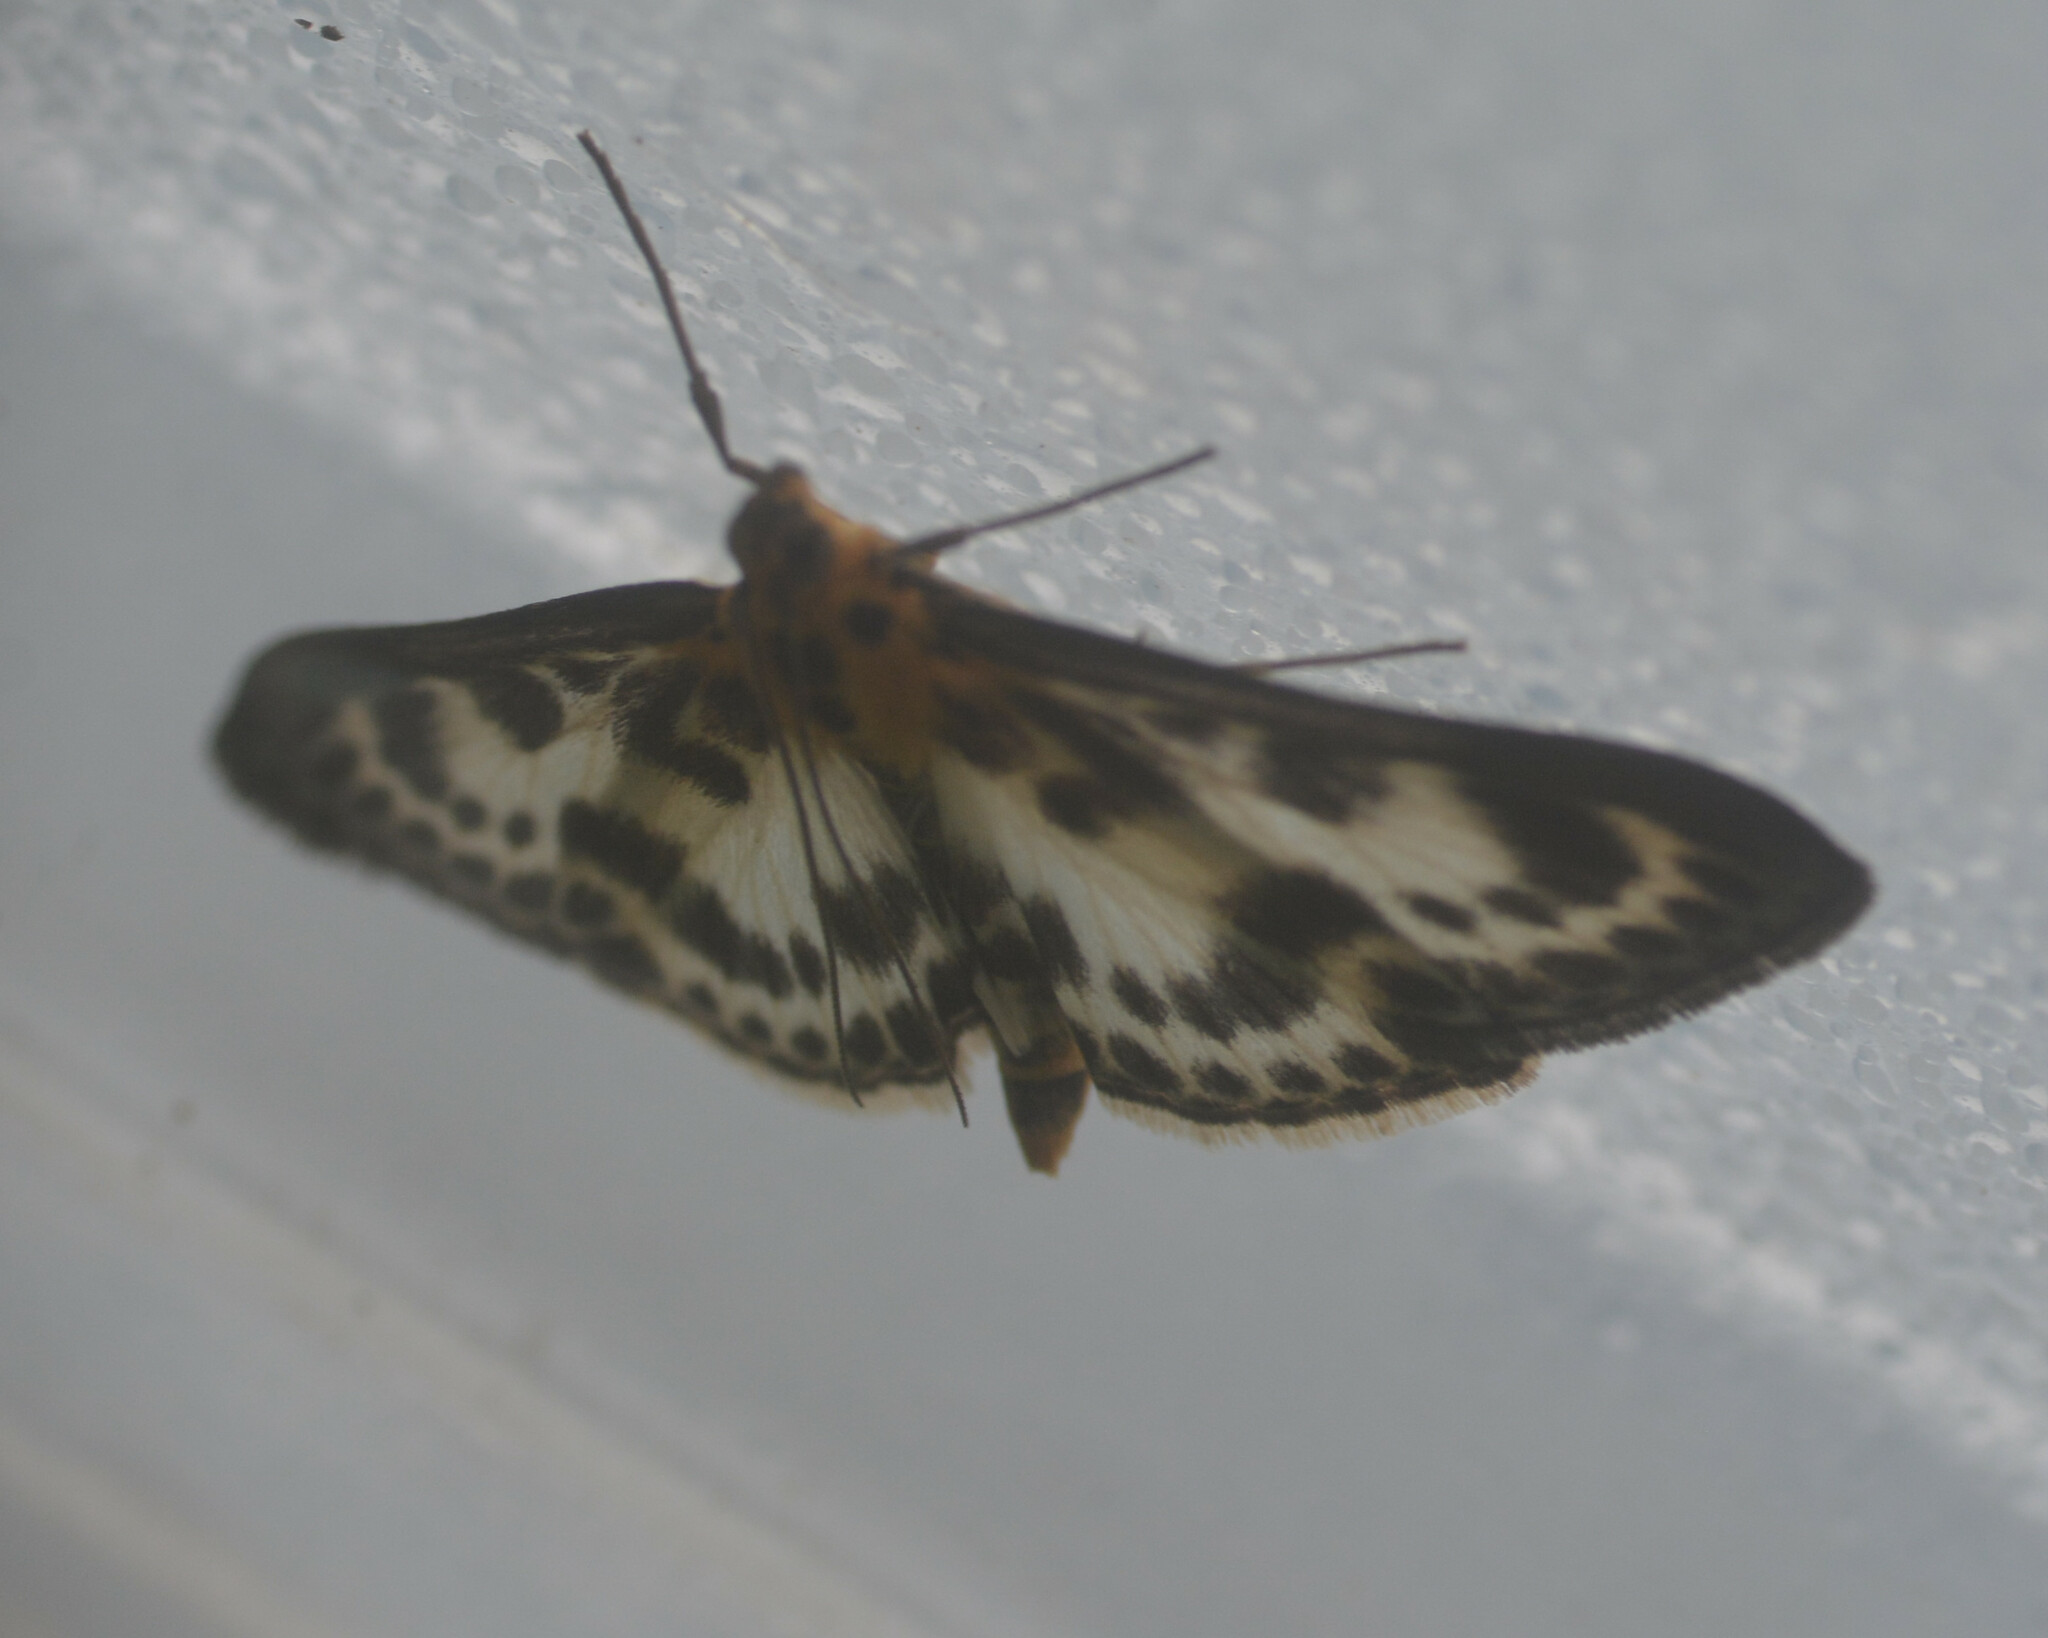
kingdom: Animalia
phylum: Arthropoda
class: Insecta
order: Lepidoptera
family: Crambidae
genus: Anania
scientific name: Anania hortulata
